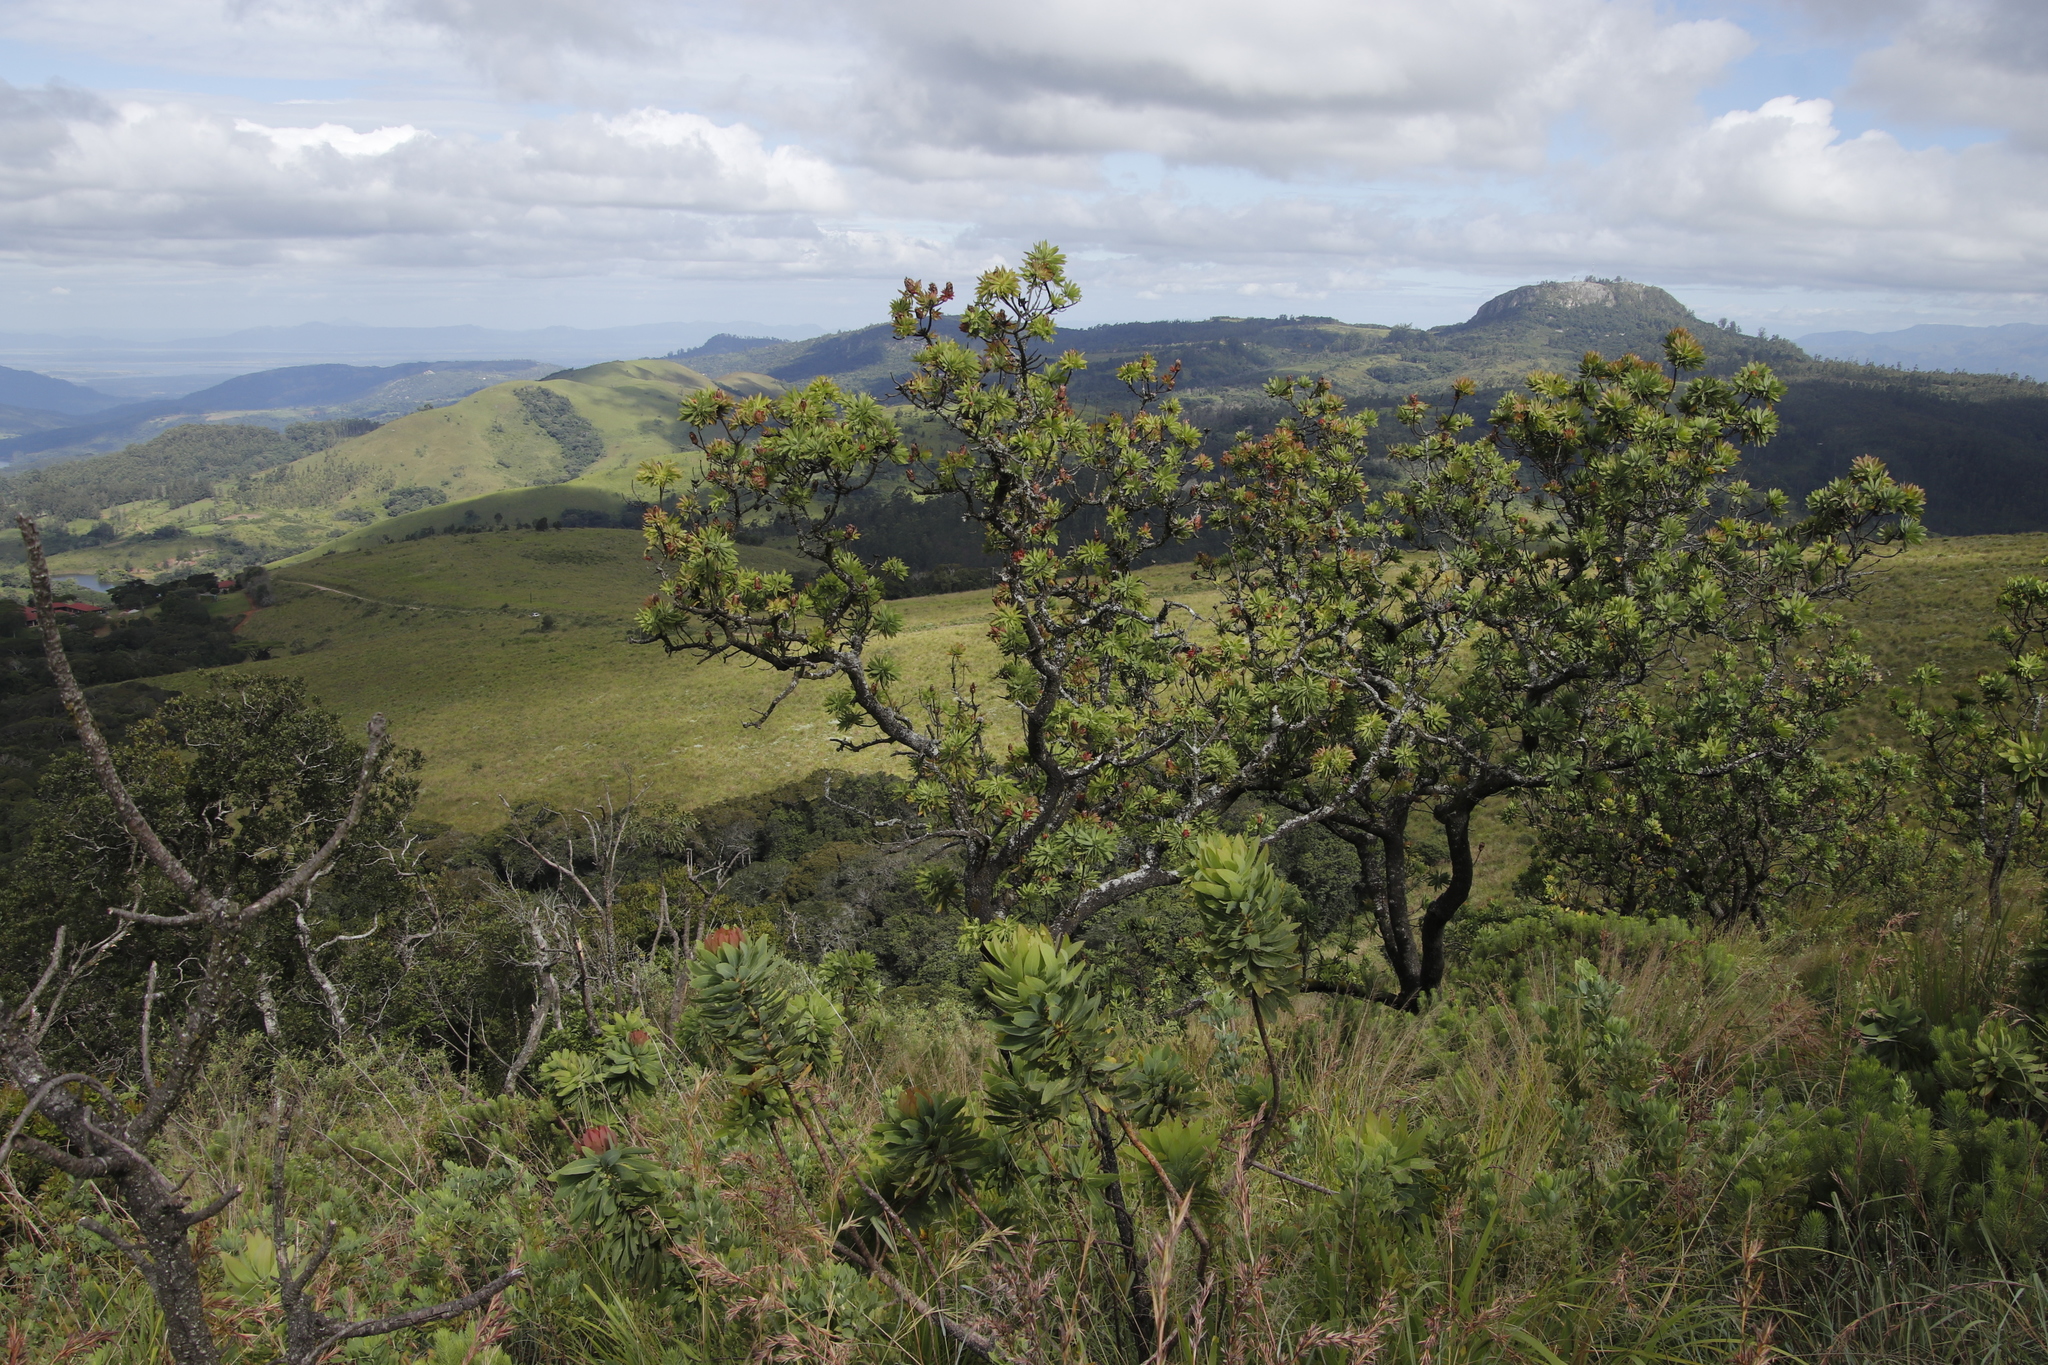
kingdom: Plantae
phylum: Tracheophyta
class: Magnoliopsida
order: Proteales
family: Proteaceae
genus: Protea
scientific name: Protea caffra
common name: Common sugarbush
